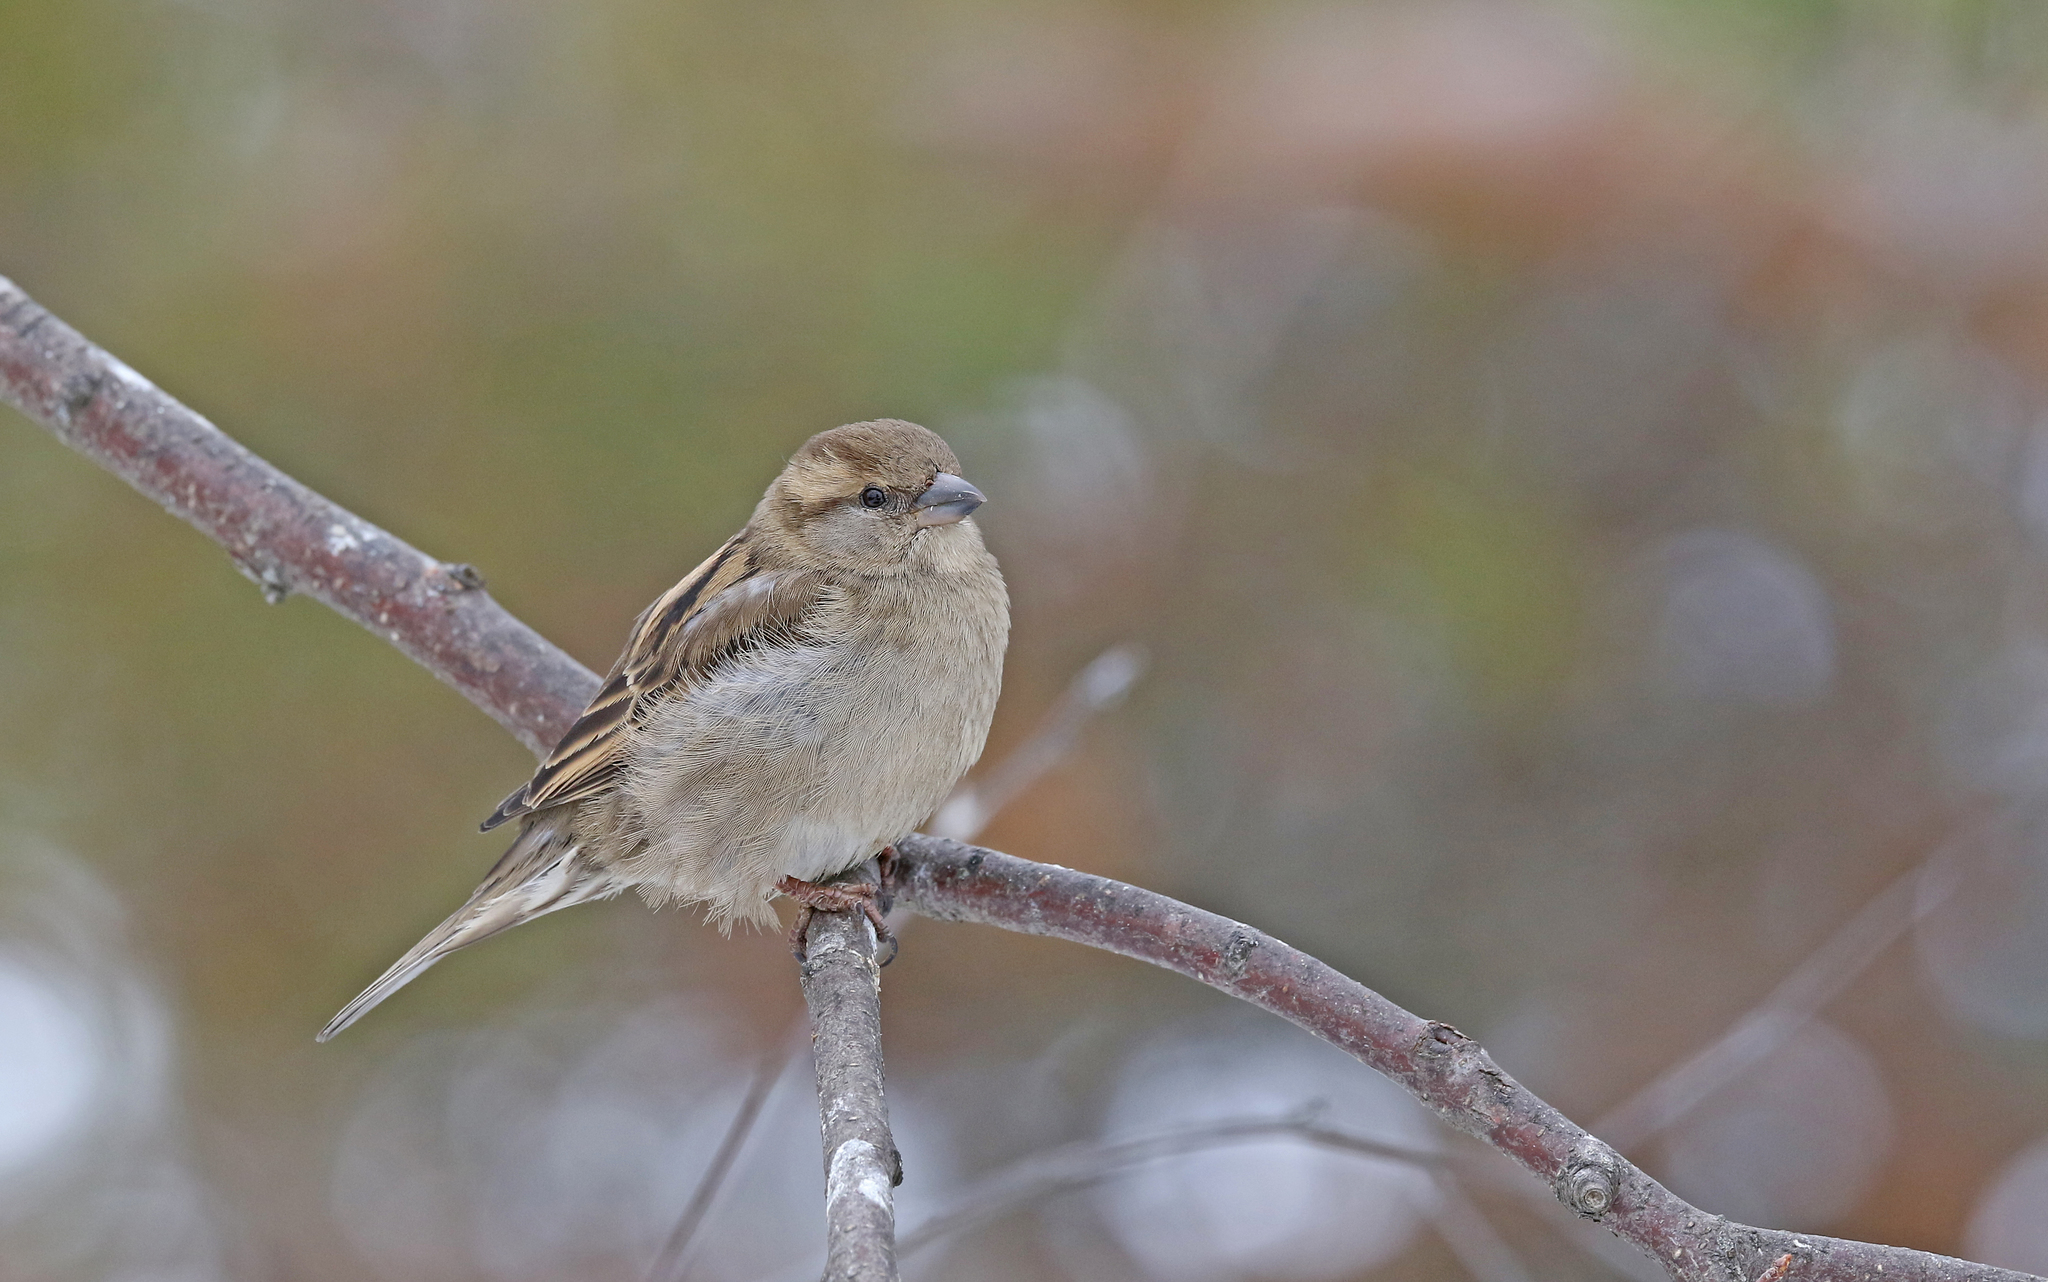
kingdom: Animalia
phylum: Chordata
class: Aves
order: Passeriformes
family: Passeridae
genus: Passer
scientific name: Passer domesticus
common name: House sparrow
